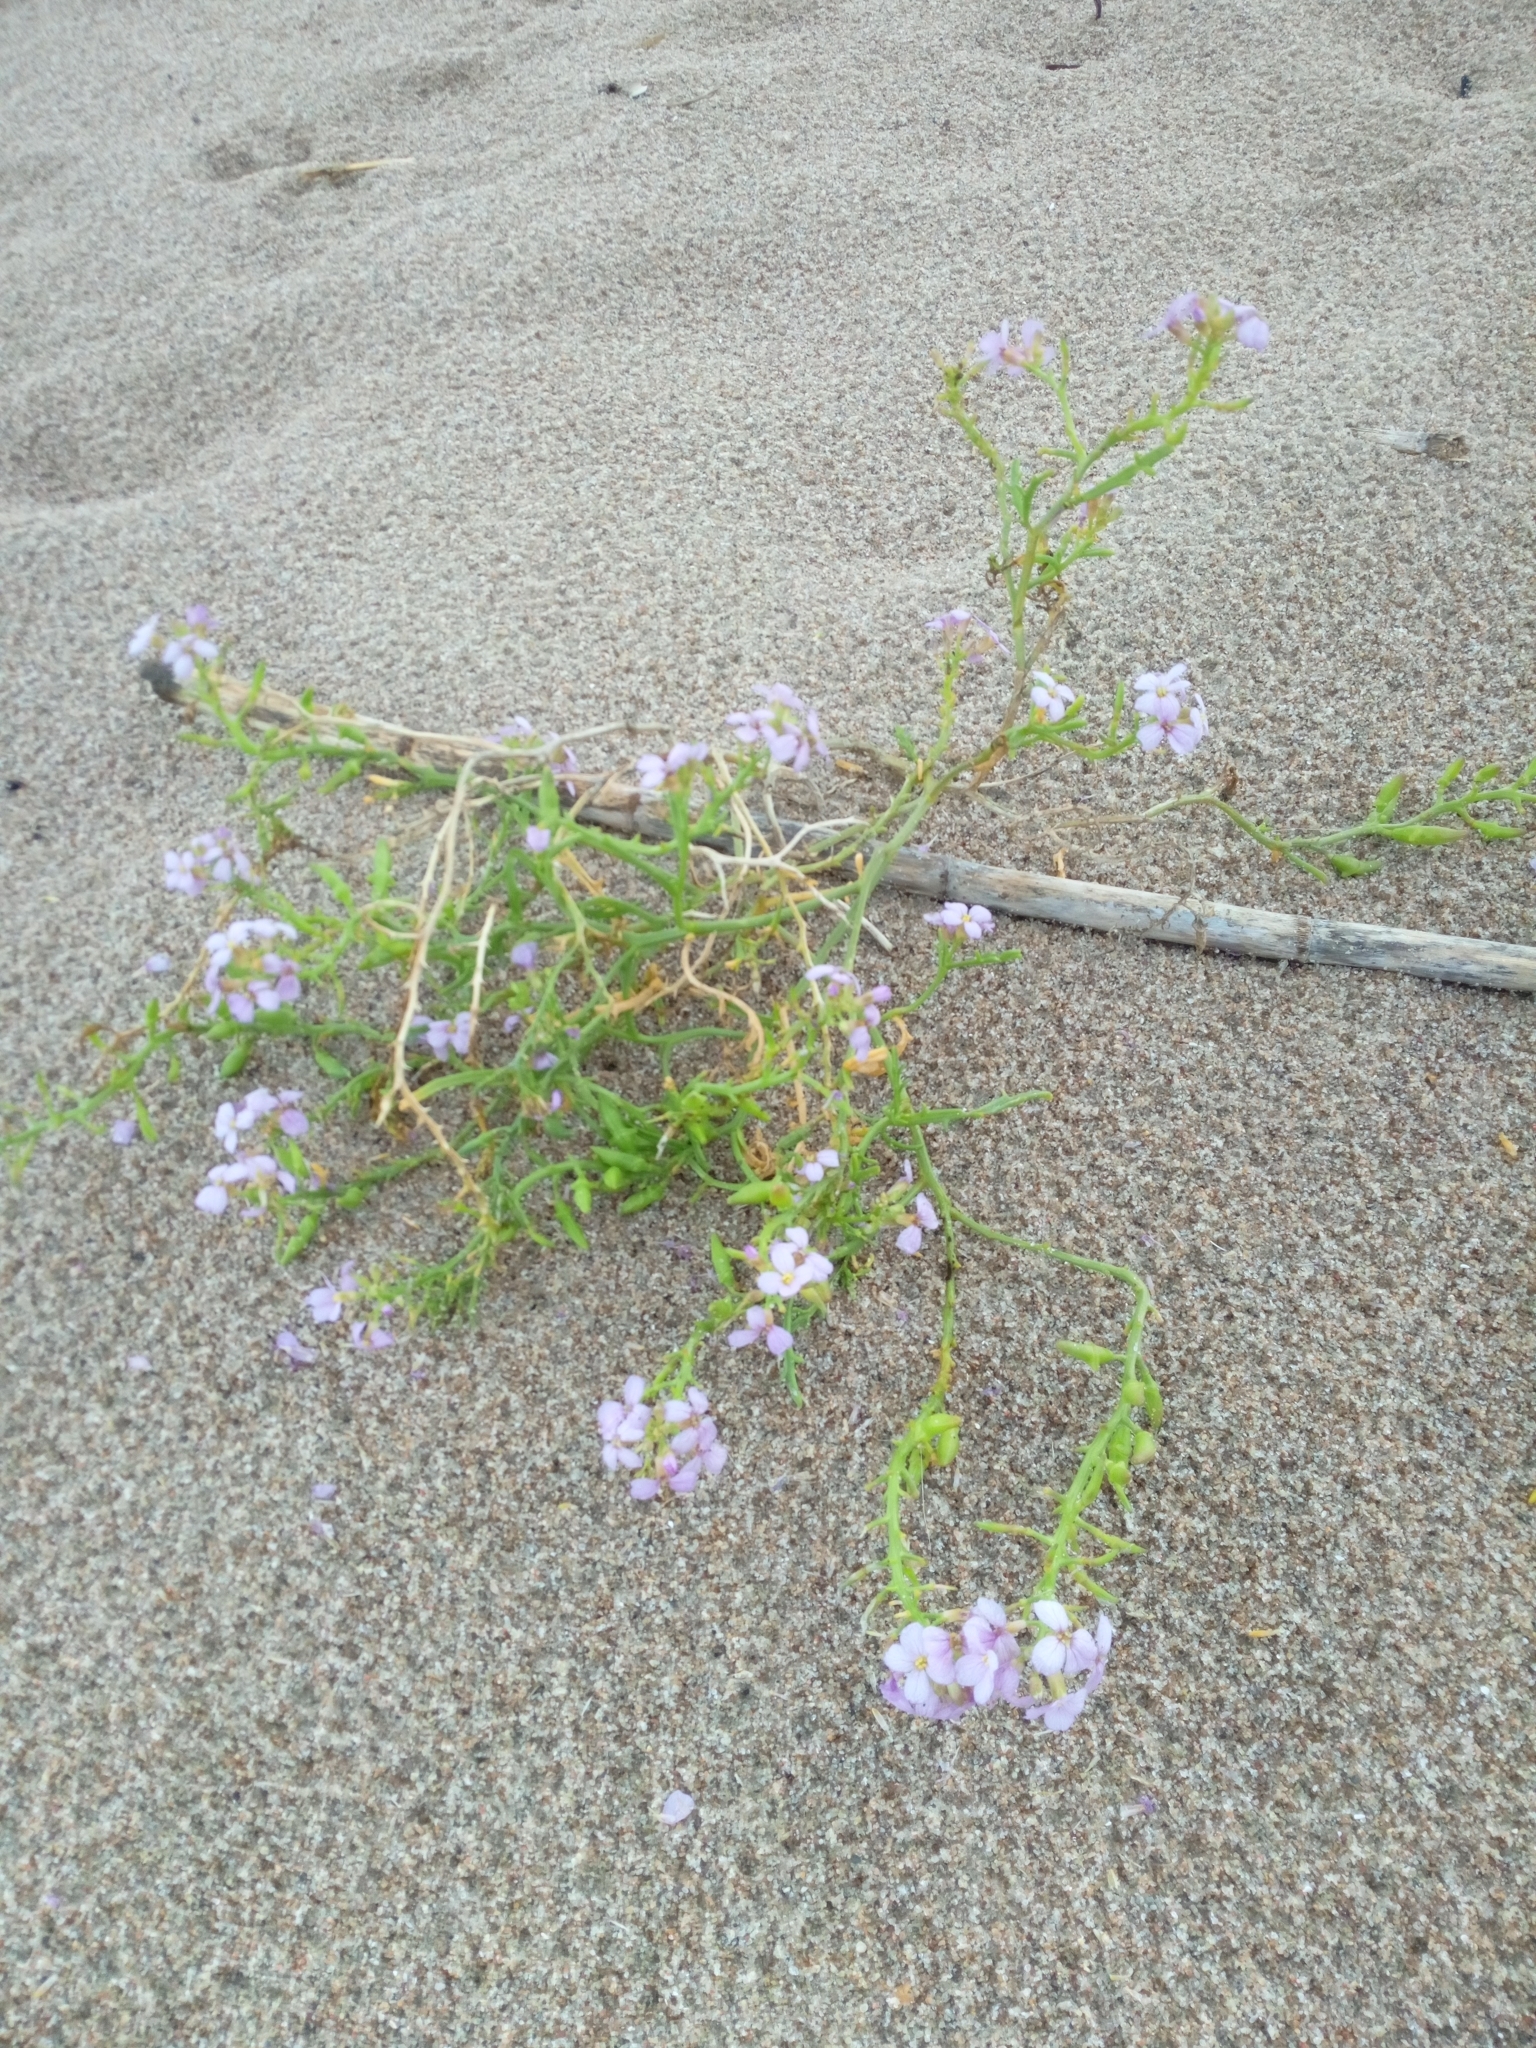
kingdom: Plantae
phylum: Tracheophyta
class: Magnoliopsida
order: Brassicales
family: Brassicaceae
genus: Cakile
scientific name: Cakile maritima
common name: Sea rocket
